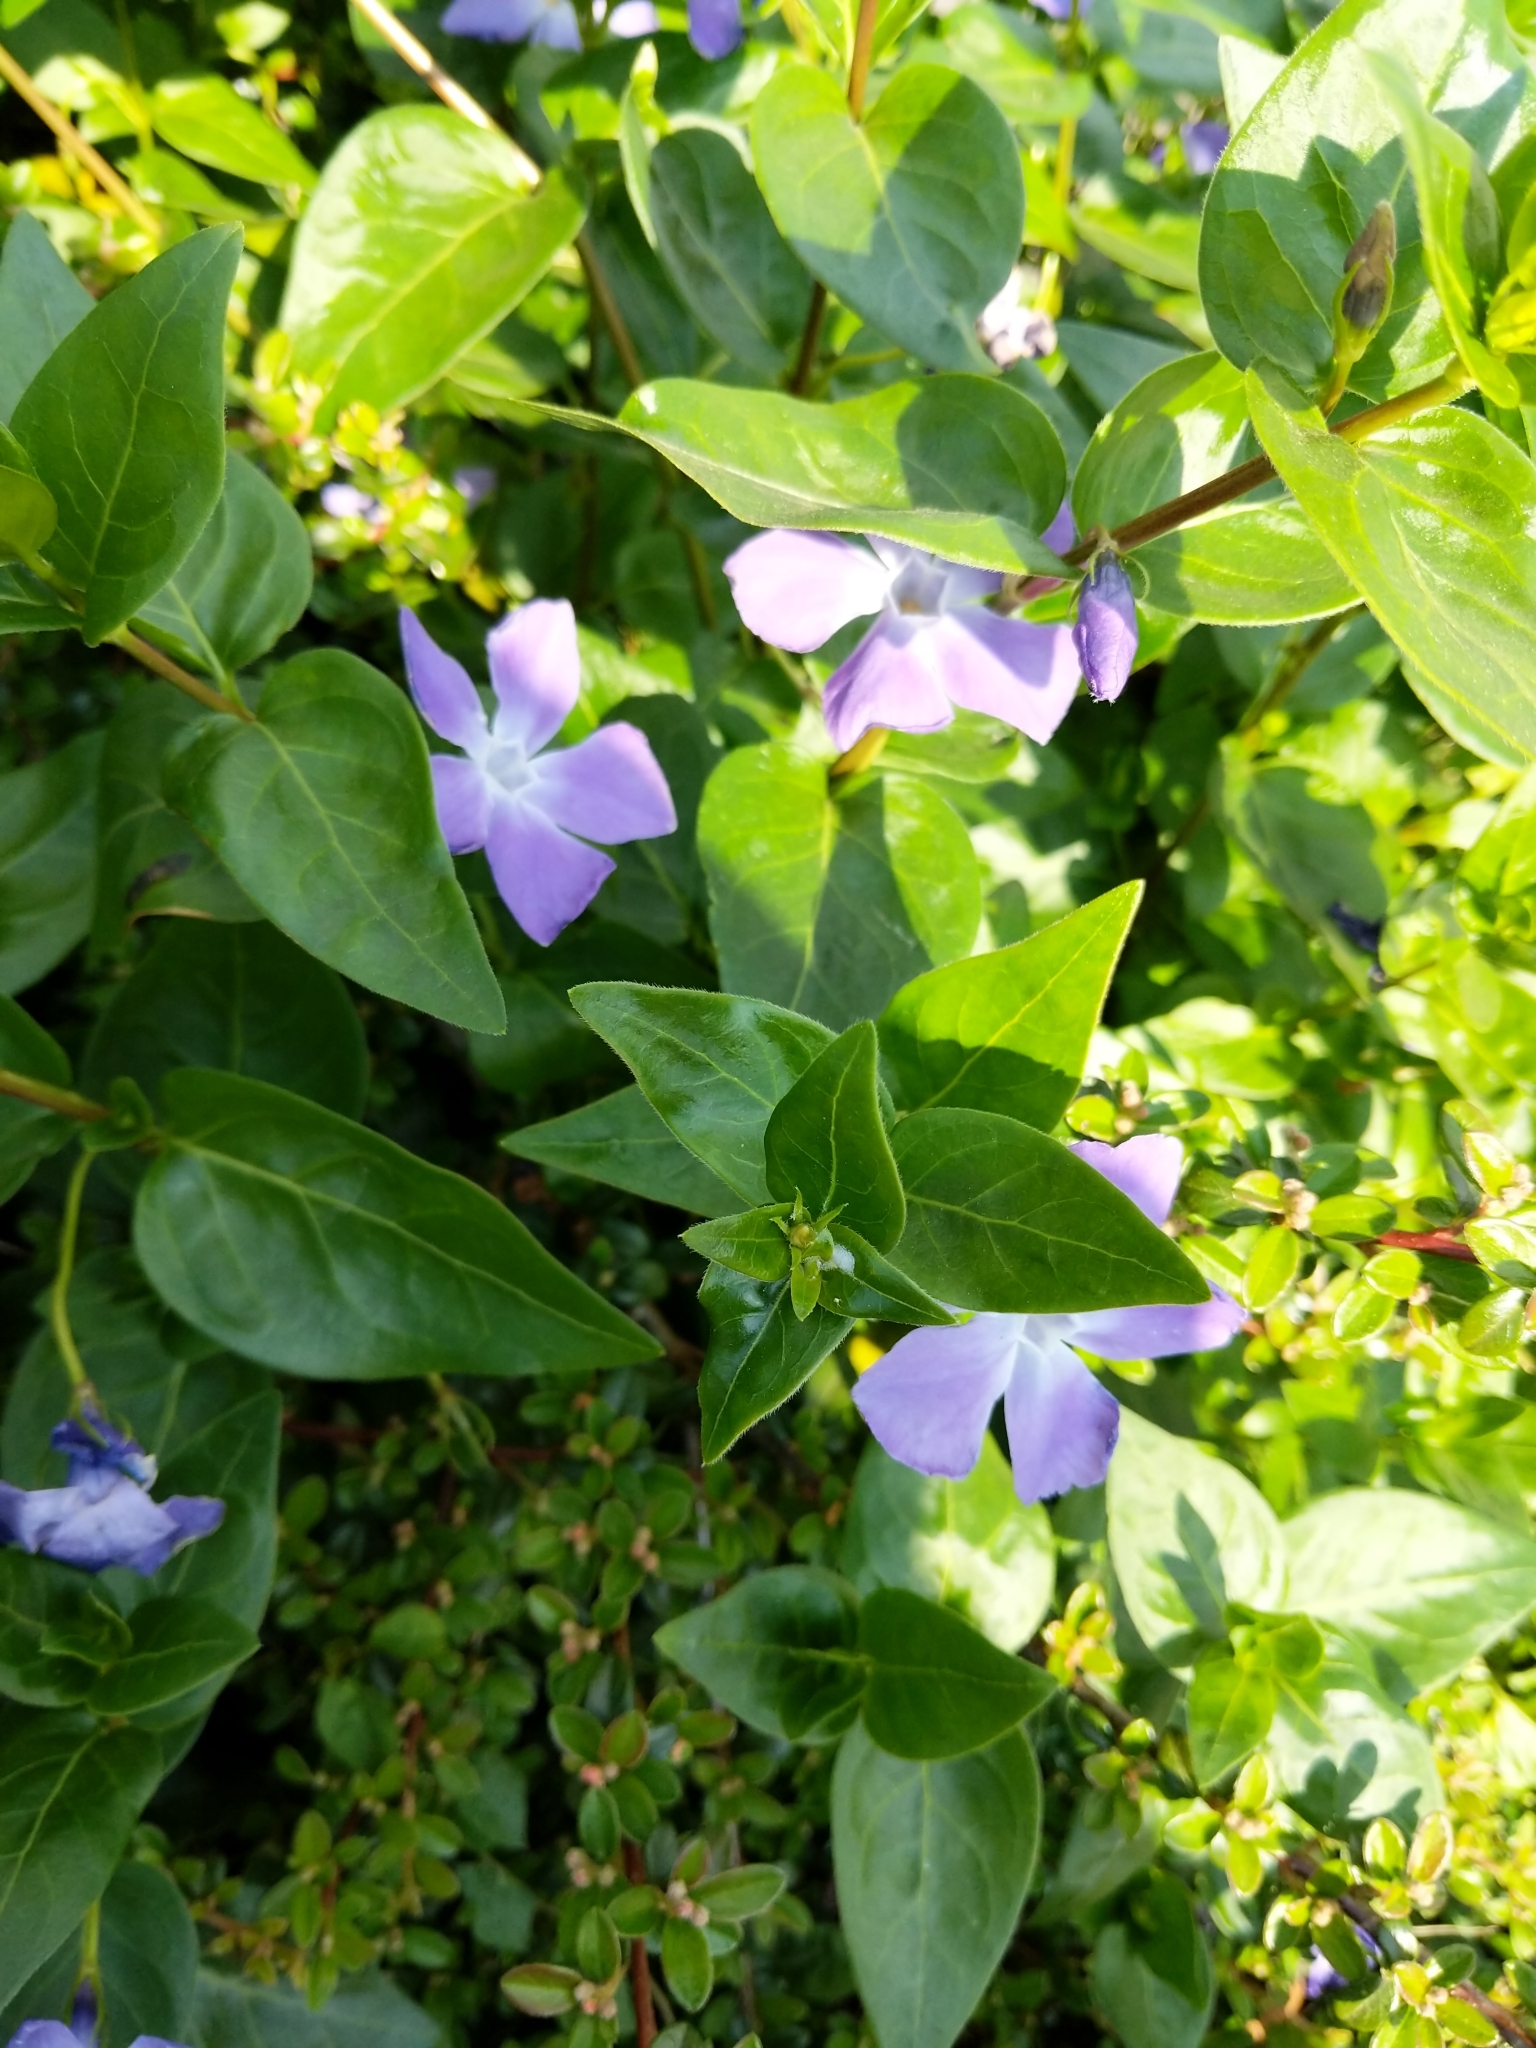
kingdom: Plantae
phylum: Tracheophyta
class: Magnoliopsida
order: Gentianales
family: Apocynaceae
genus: Vinca
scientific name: Vinca major
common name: Greater periwinkle
